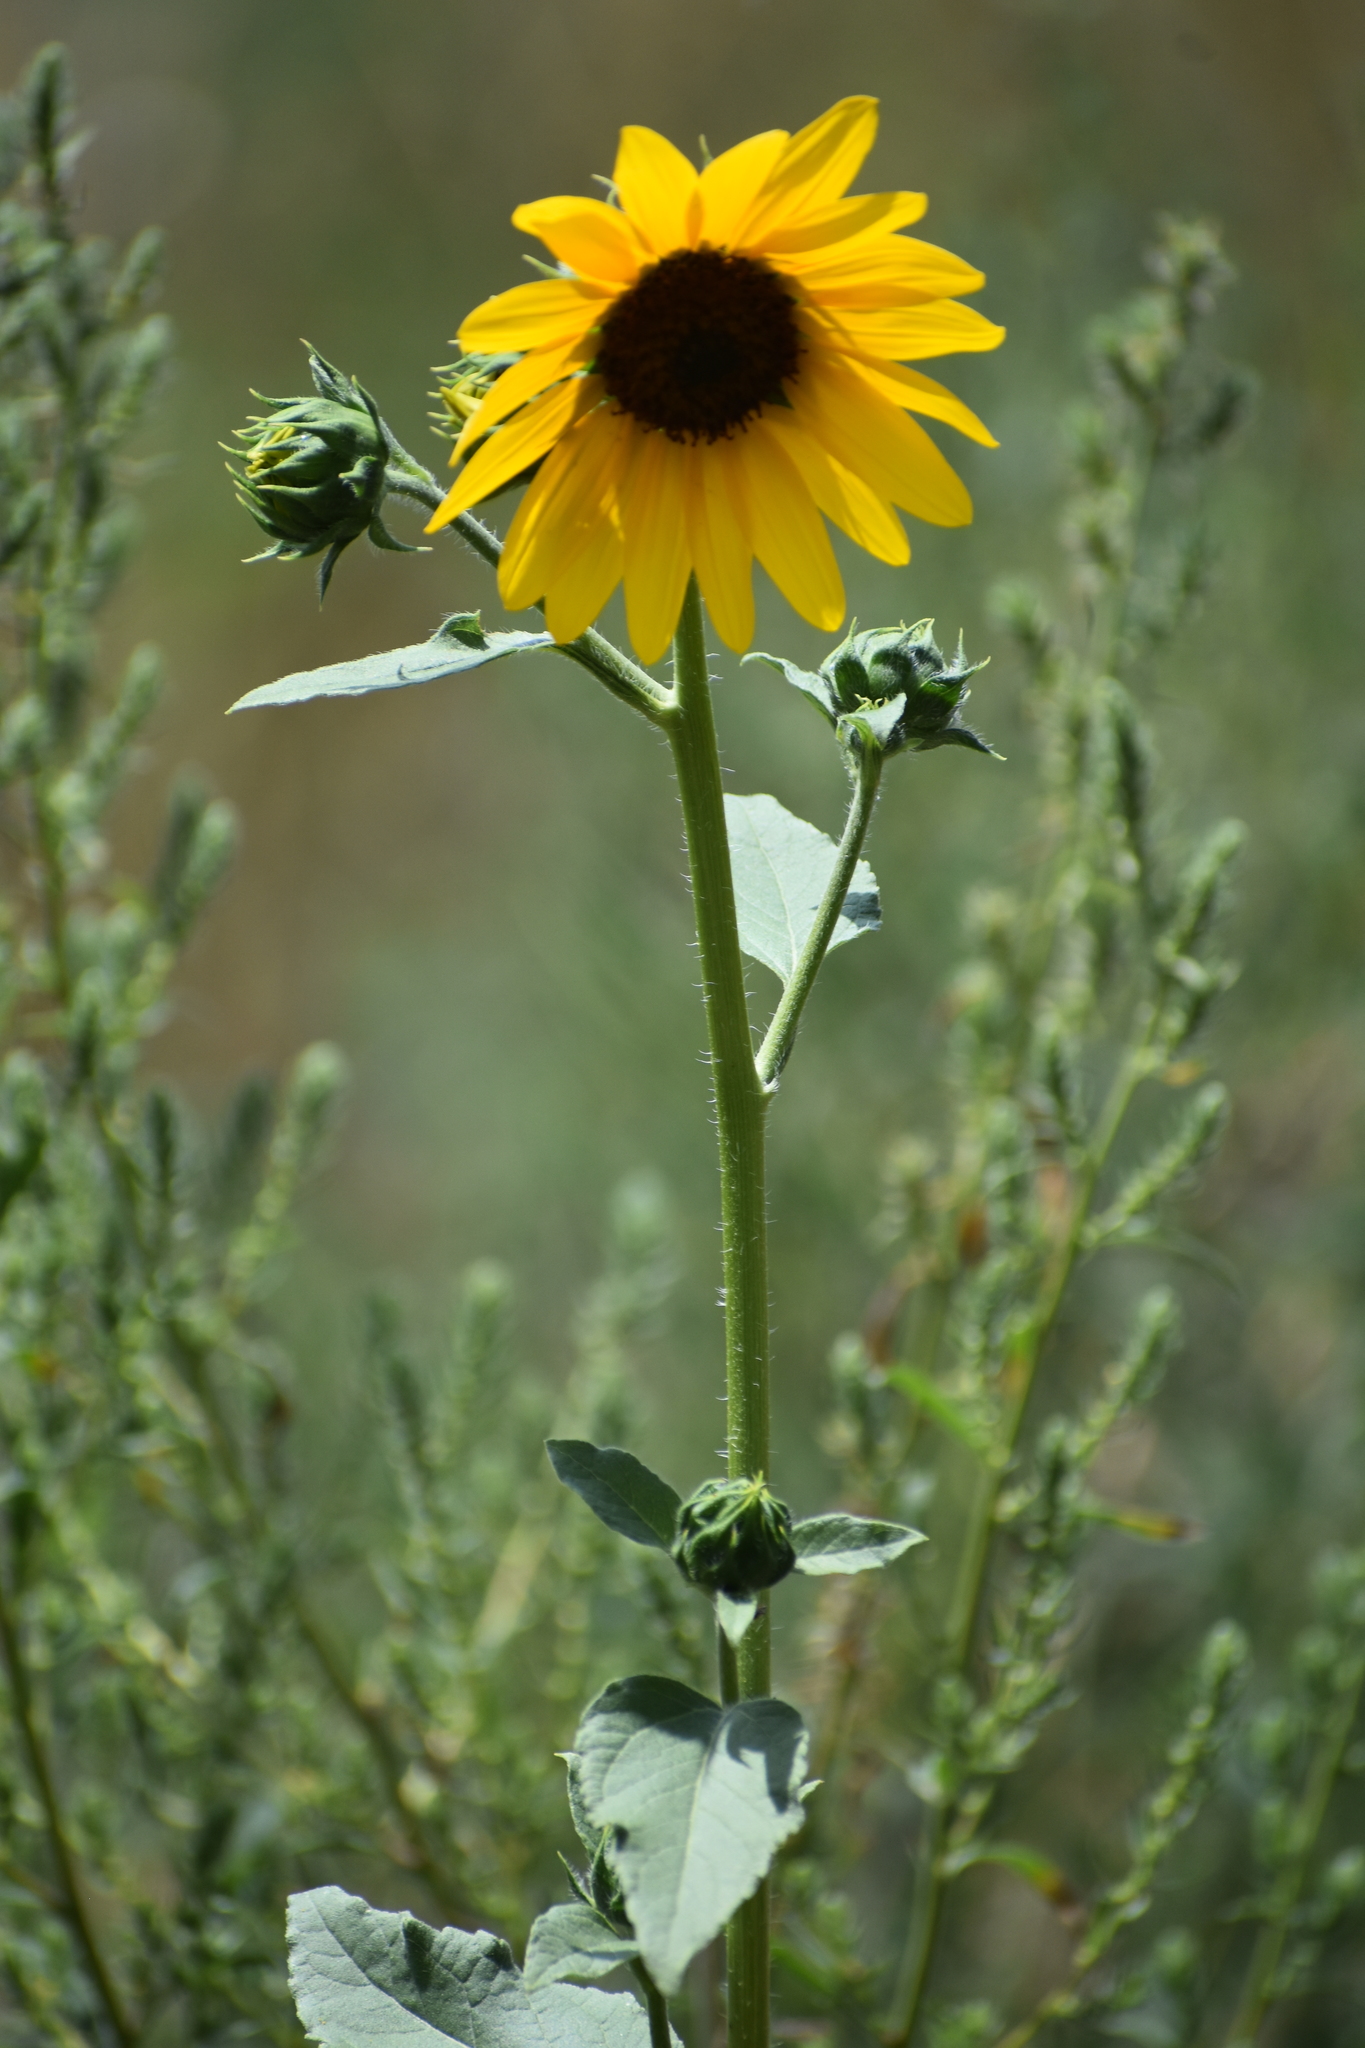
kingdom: Plantae
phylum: Tracheophyta
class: Magnoliopsida
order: Asterales
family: Asteraceae
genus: Helianthus
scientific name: Helianthus annuus
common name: Sunflower
